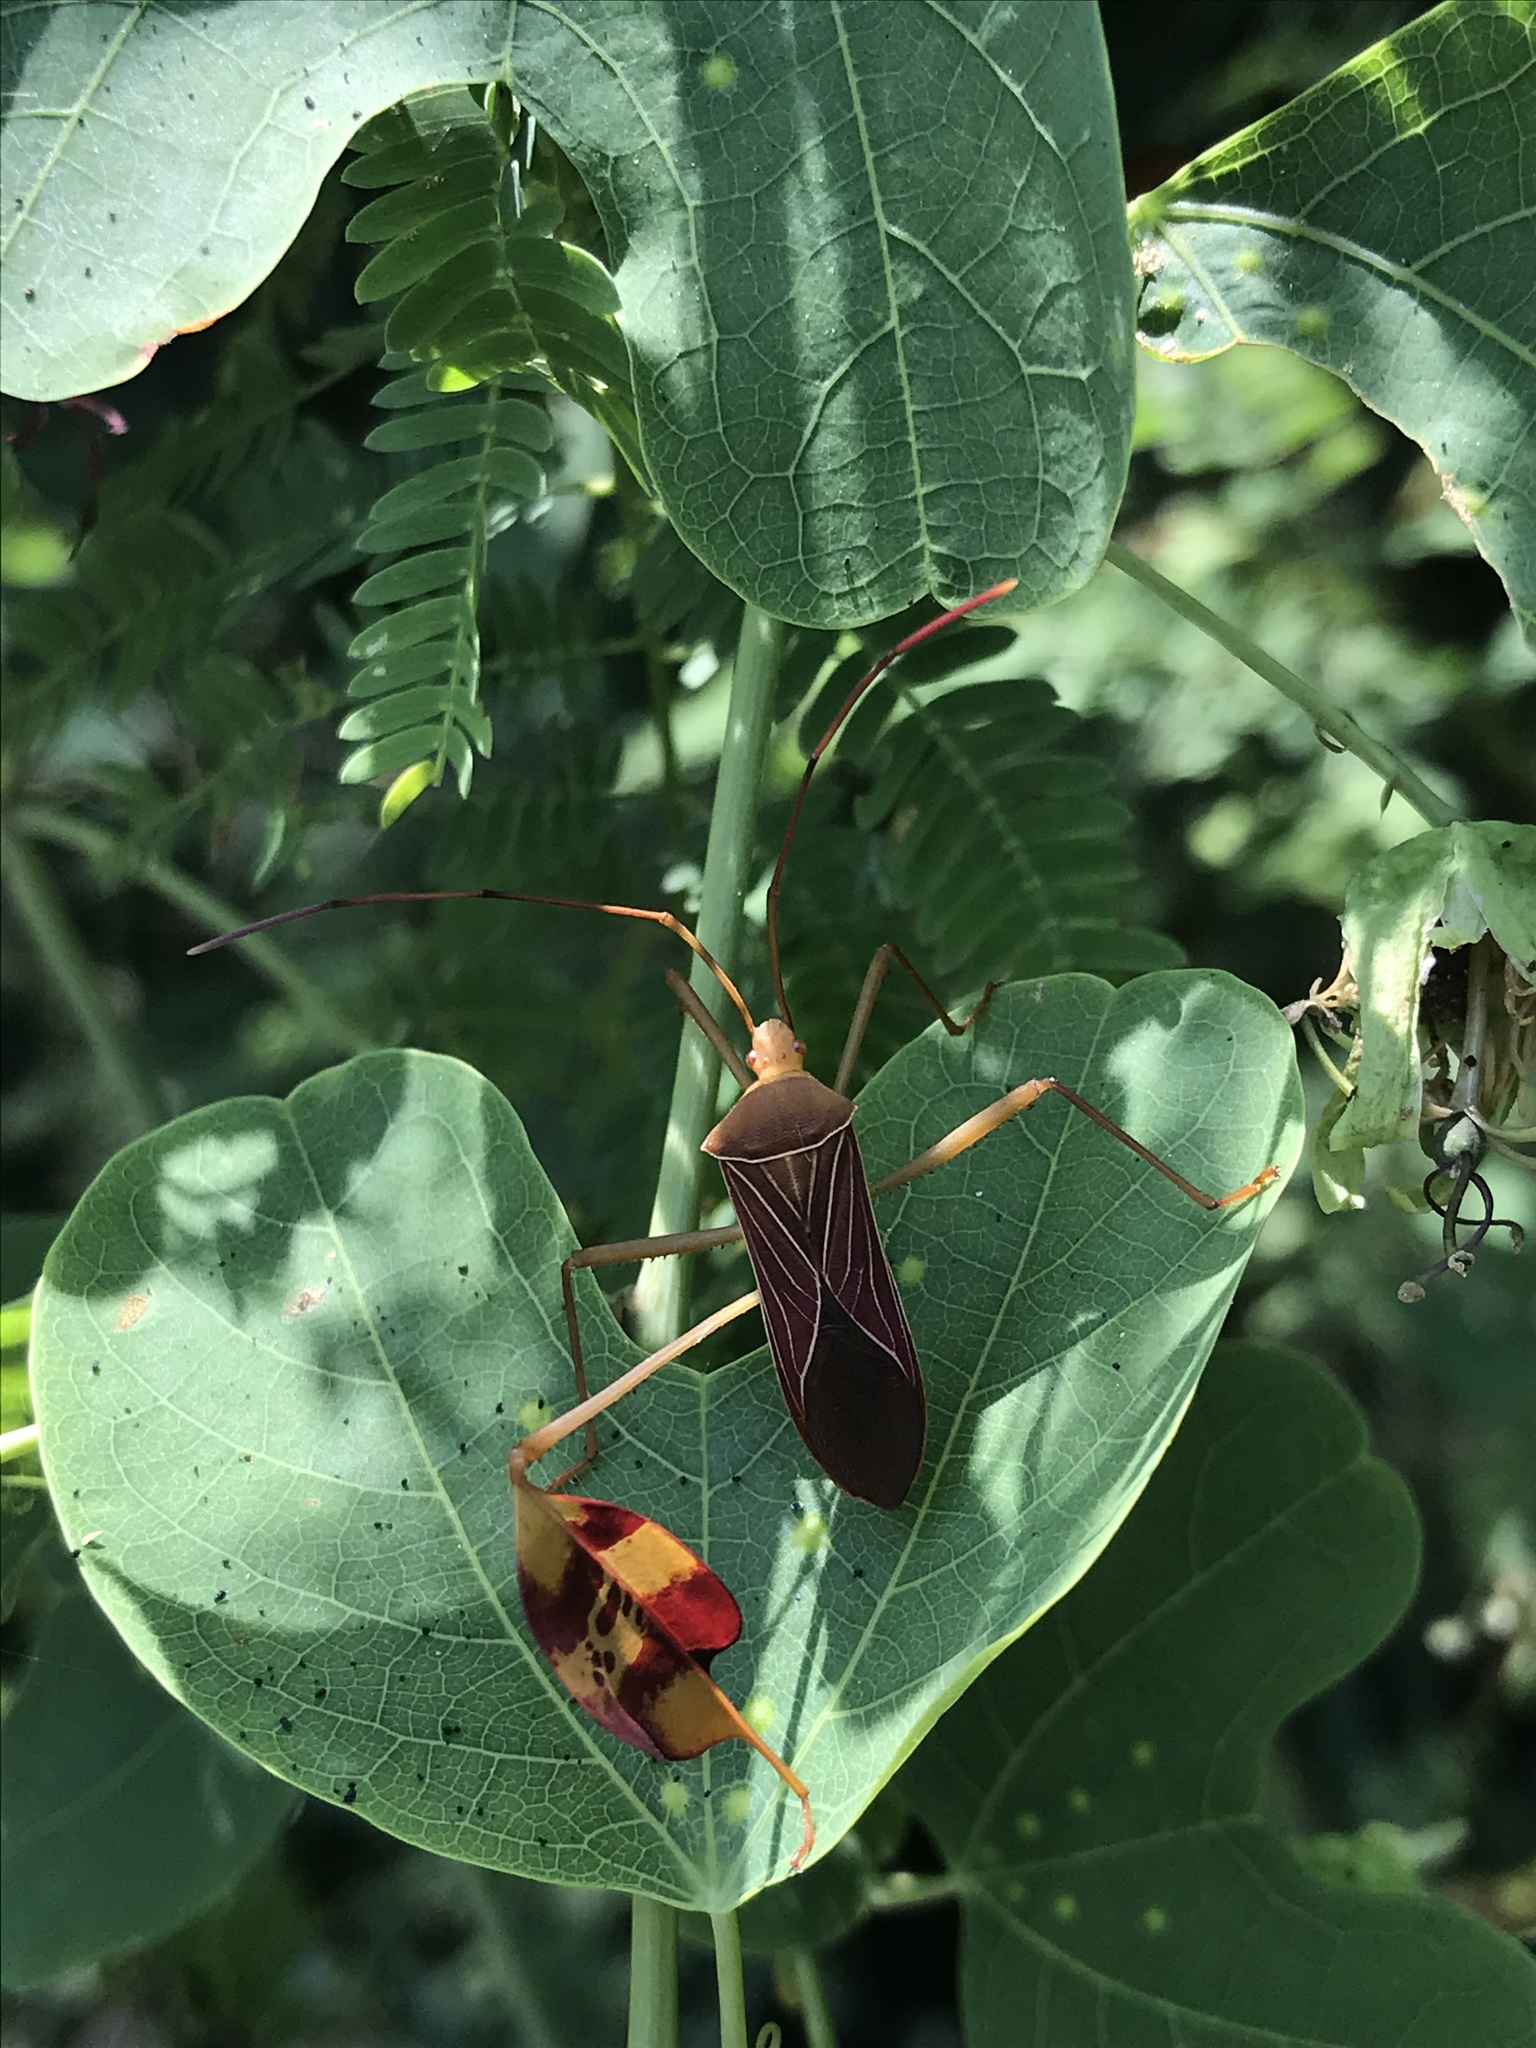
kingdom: Animalia
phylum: Arthropoda
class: Insecta
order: Hemiptera
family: Coreidae
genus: Bitta
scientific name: Bitta
